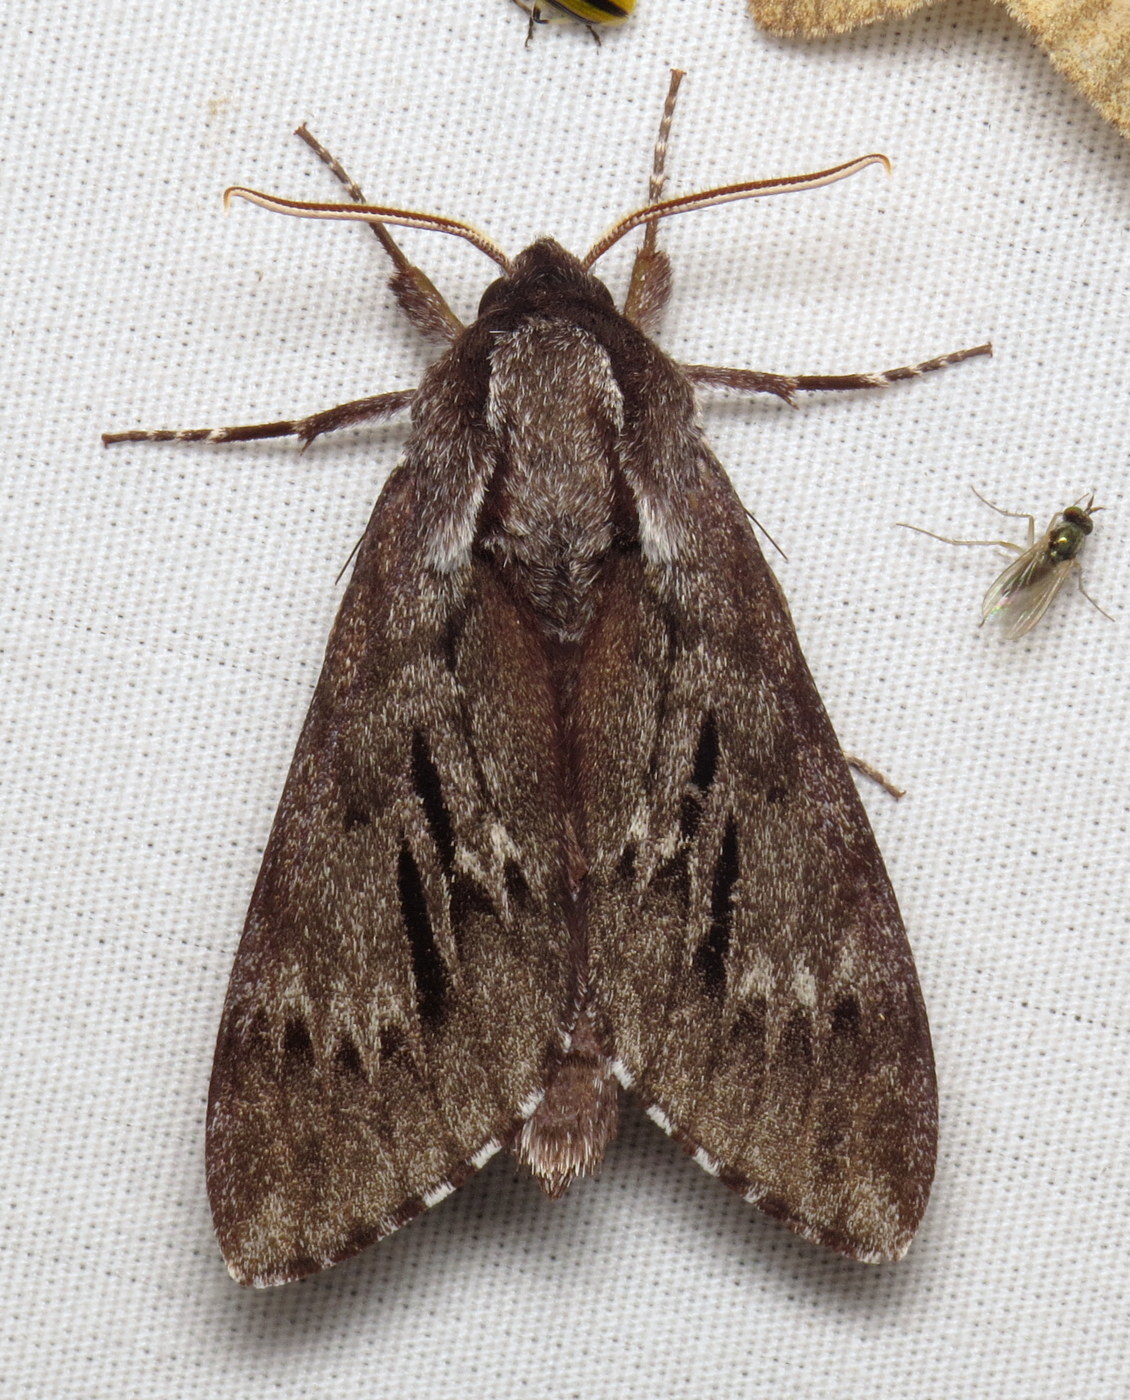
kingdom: Animalia
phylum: Arthropoda
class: Insecta
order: Lepidoptera
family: Sphingidae
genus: Lapara
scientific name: Lapara bombycoides
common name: Northern pine sphinx
